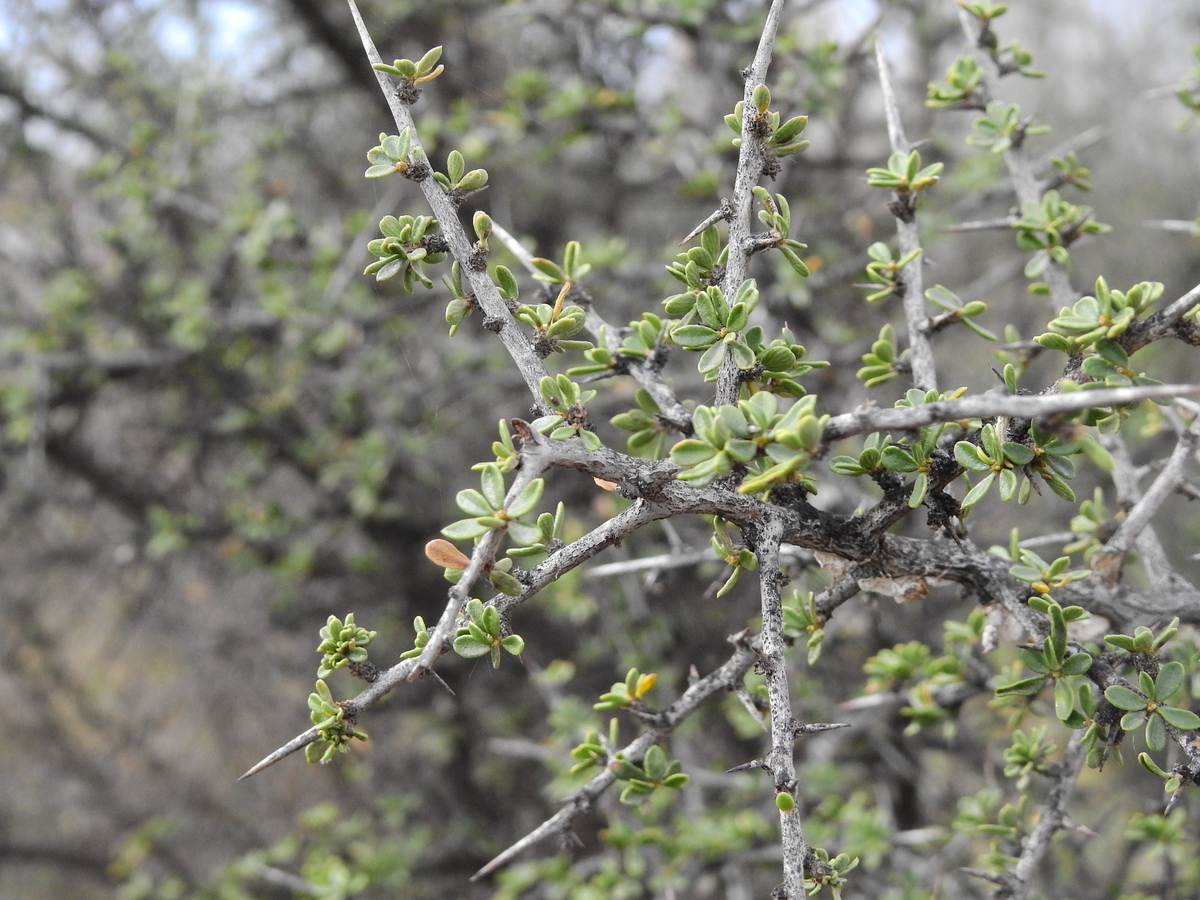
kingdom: Plantae
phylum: Tracheophyta
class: Magnoliopsida
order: Rosales
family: Rhamnaceae
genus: Condalia
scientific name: Condalia microphylla
